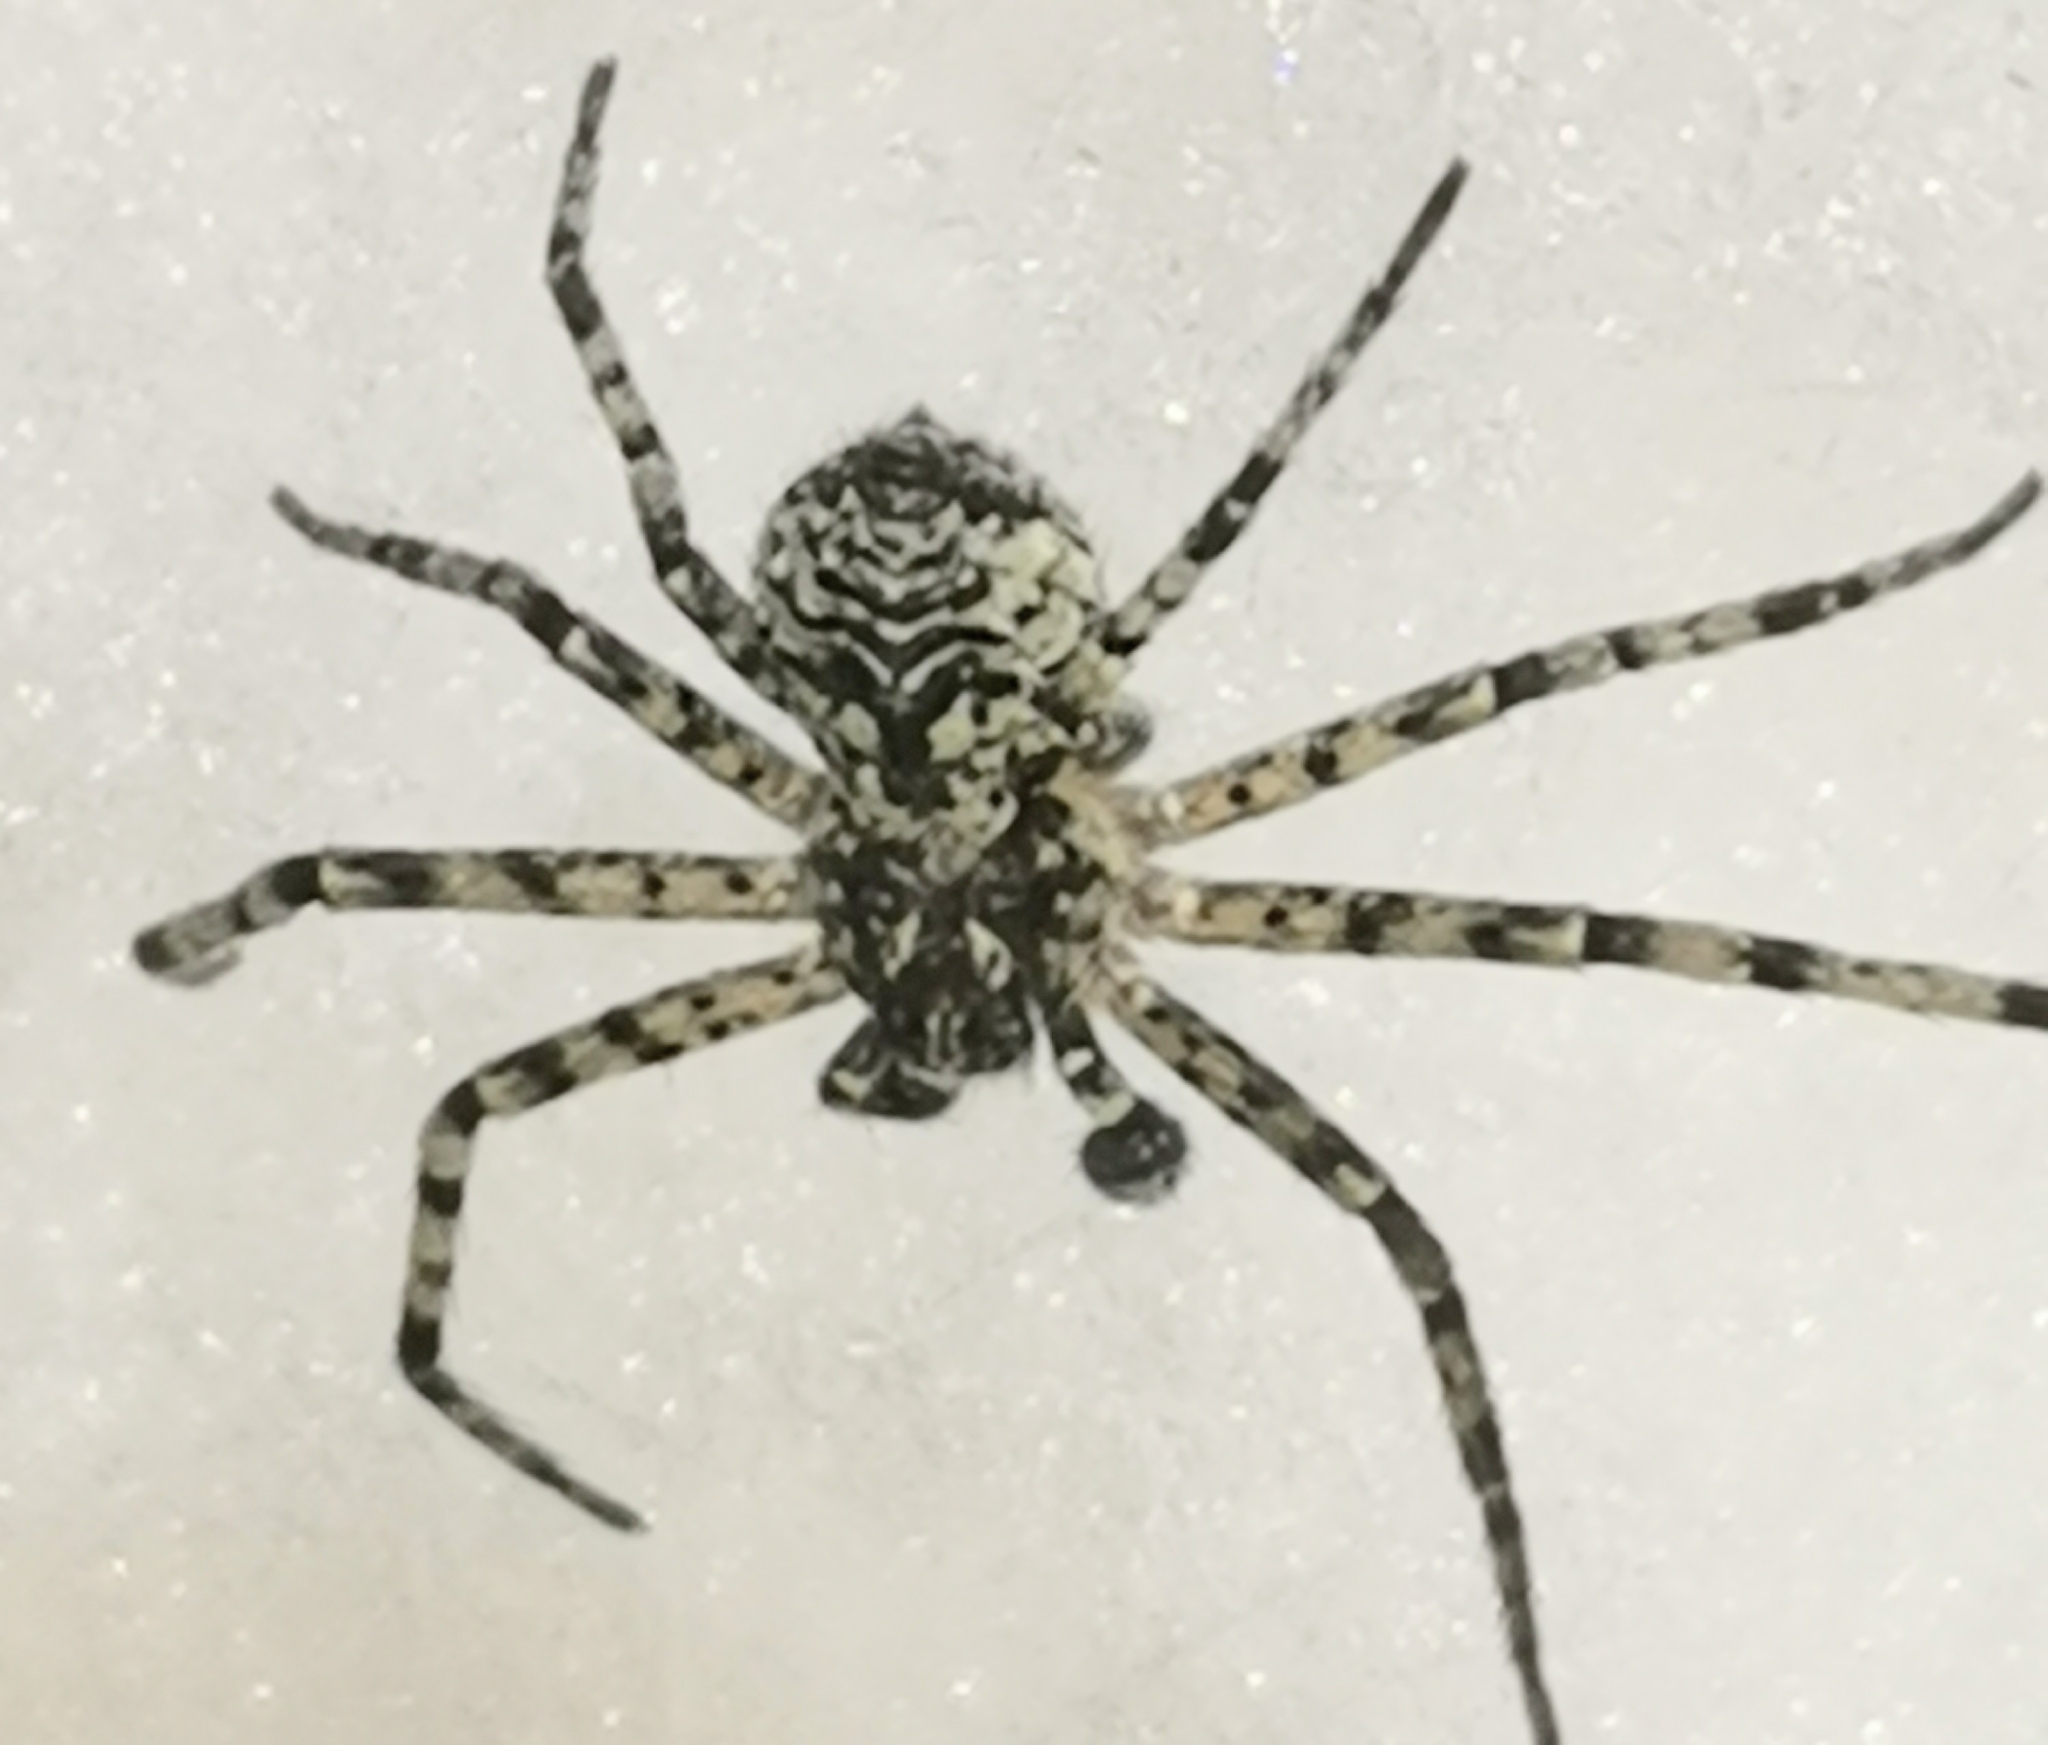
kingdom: Animalia
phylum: Arthropoda
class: Arachnida
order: Araneae
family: Philodromidae
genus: Philodromus
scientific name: Philodromus margaritatus
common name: Lichen running-spider
